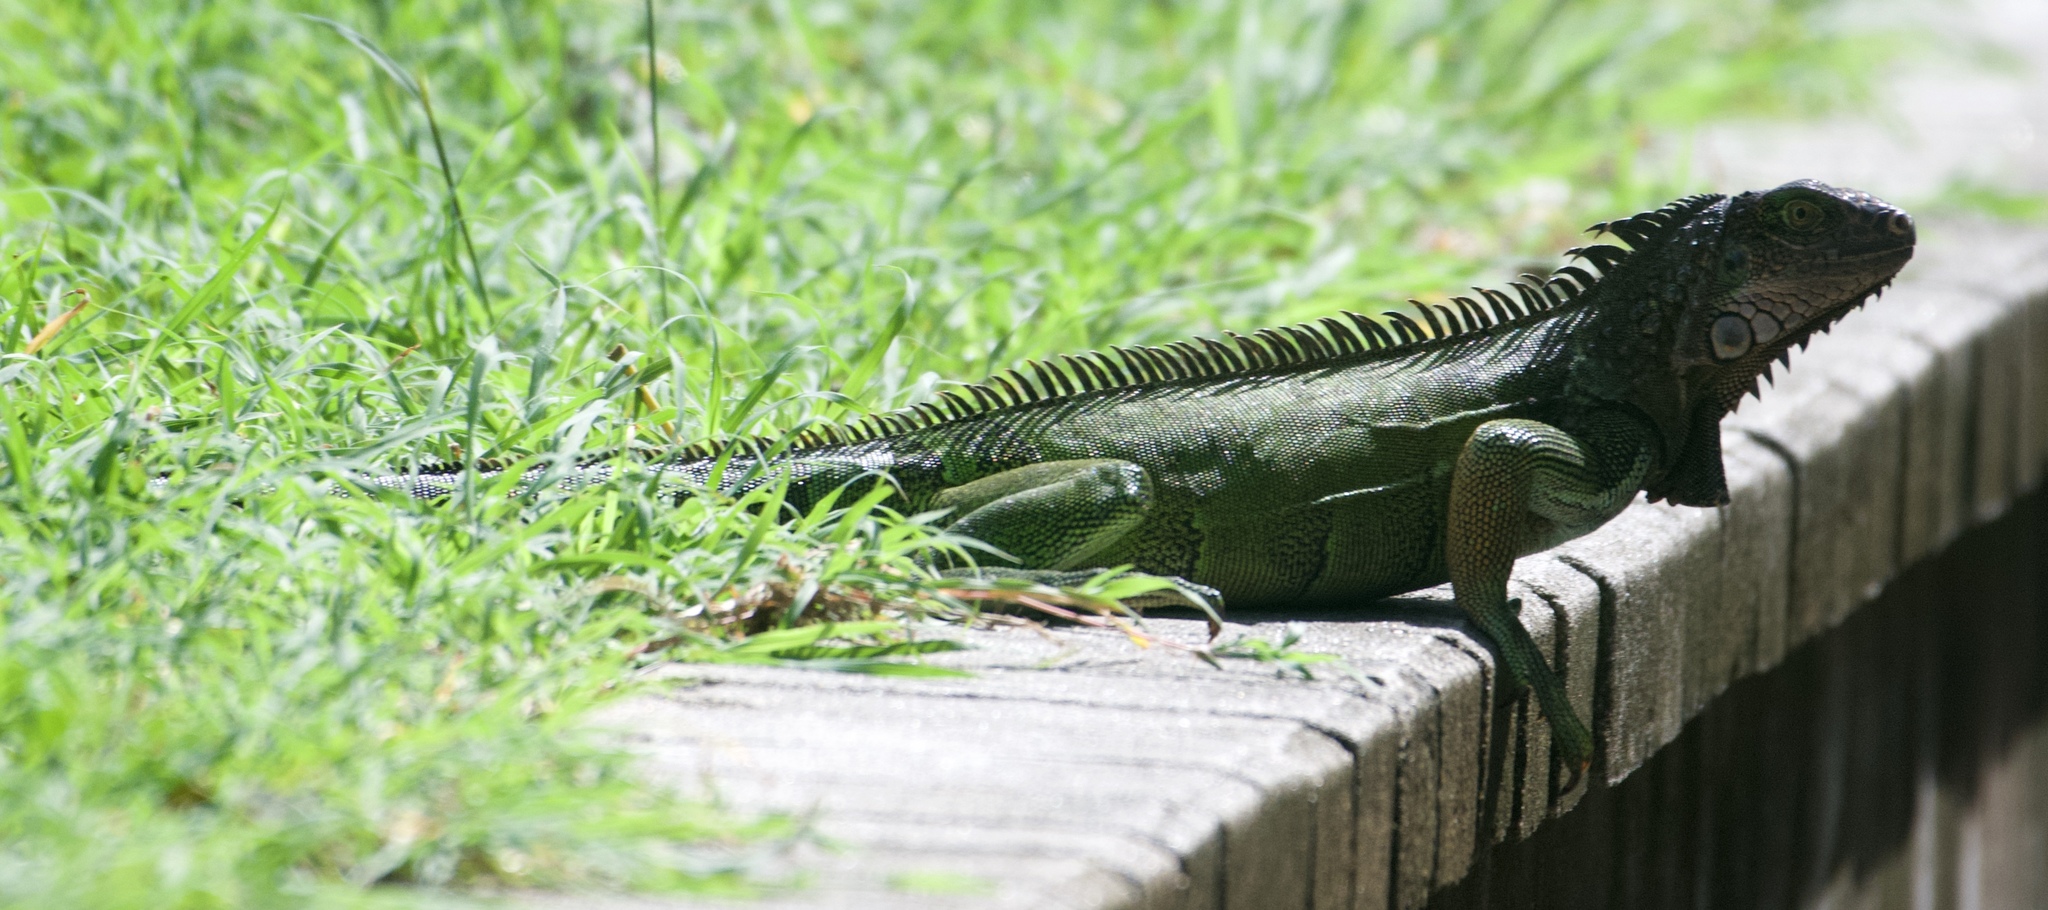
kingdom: Animalia
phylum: Chordata
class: Squamata
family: Iguanidae
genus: Iguana
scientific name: Iguana iguana
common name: Green iguana
